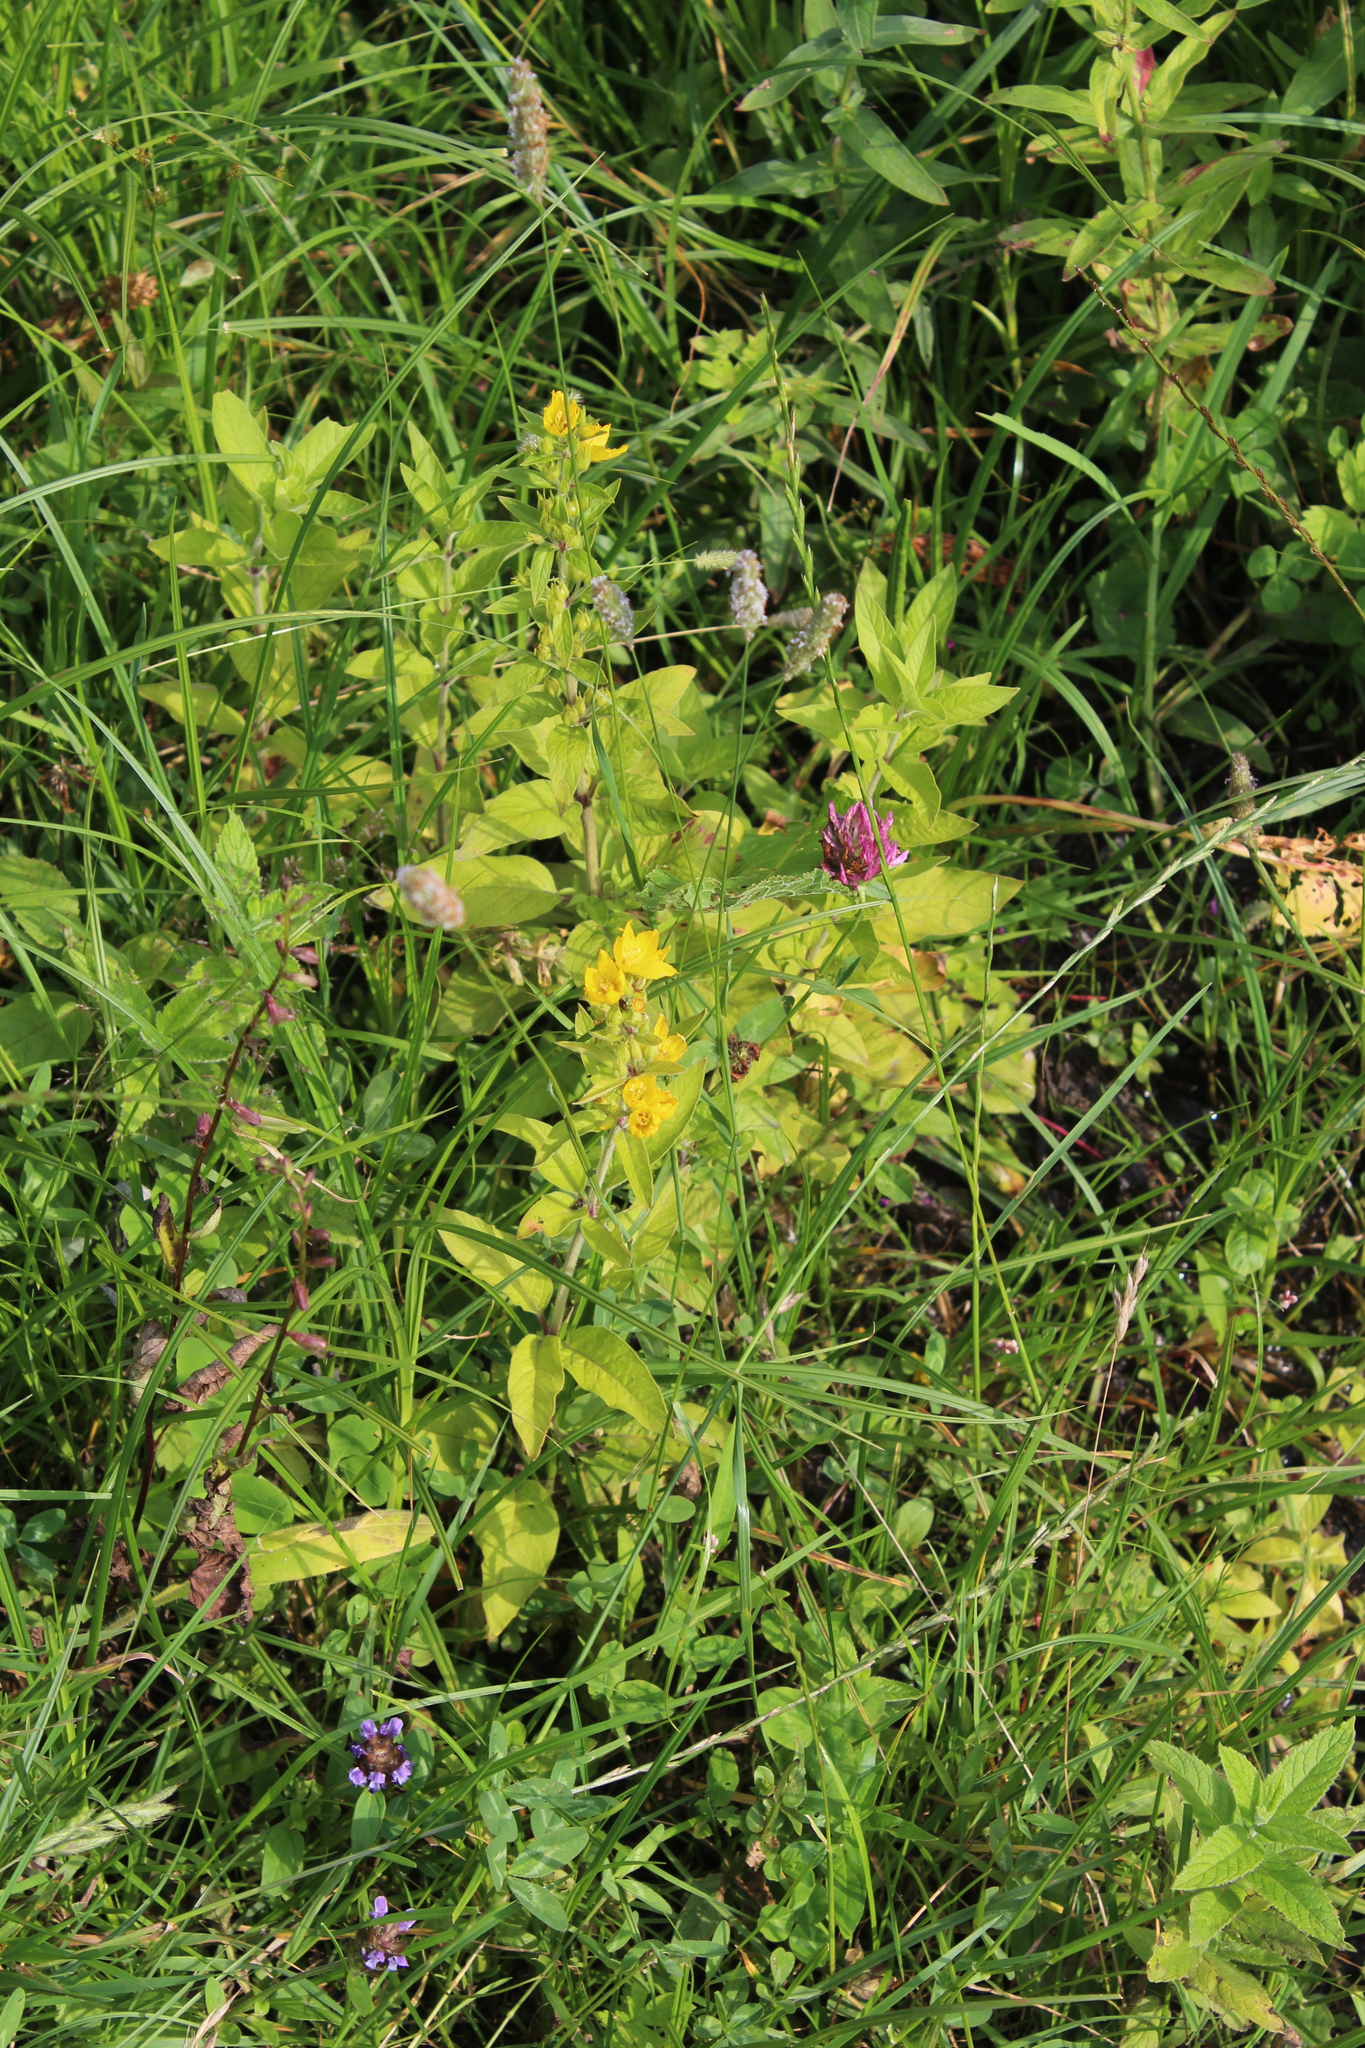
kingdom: Plantae
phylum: Tracheophyta
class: Magnoliopsida
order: Ericales
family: Primulaceae
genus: Lysimachia
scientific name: Lysimachia verticillaris
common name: Yellow loosestrife
